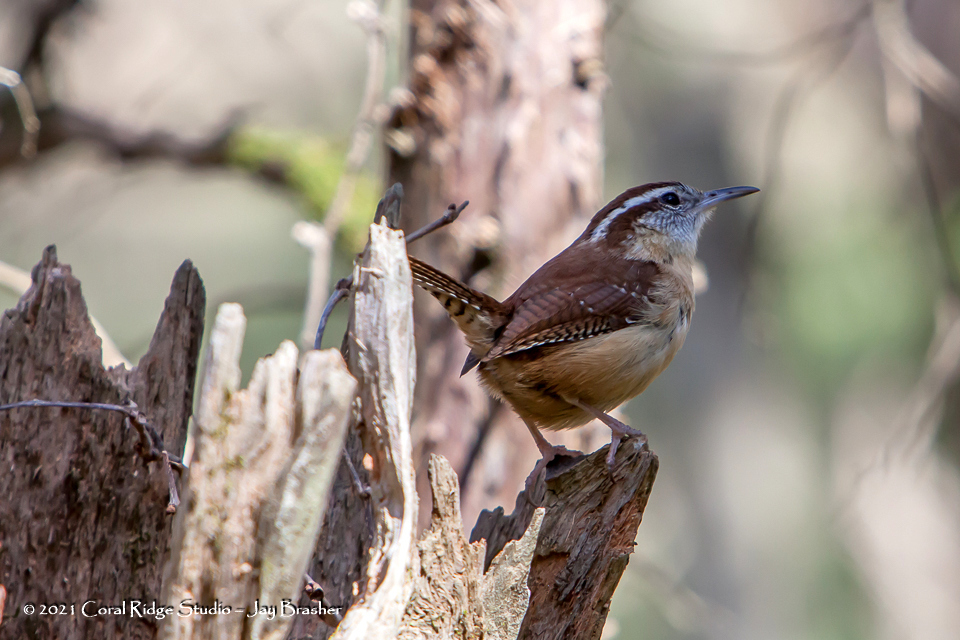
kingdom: Animalia
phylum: Chordata
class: Aves
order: Passeriformes
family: Troglodytidae
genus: Thryothorus
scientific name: Thryothorus ludovicianus
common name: Carolina wren
